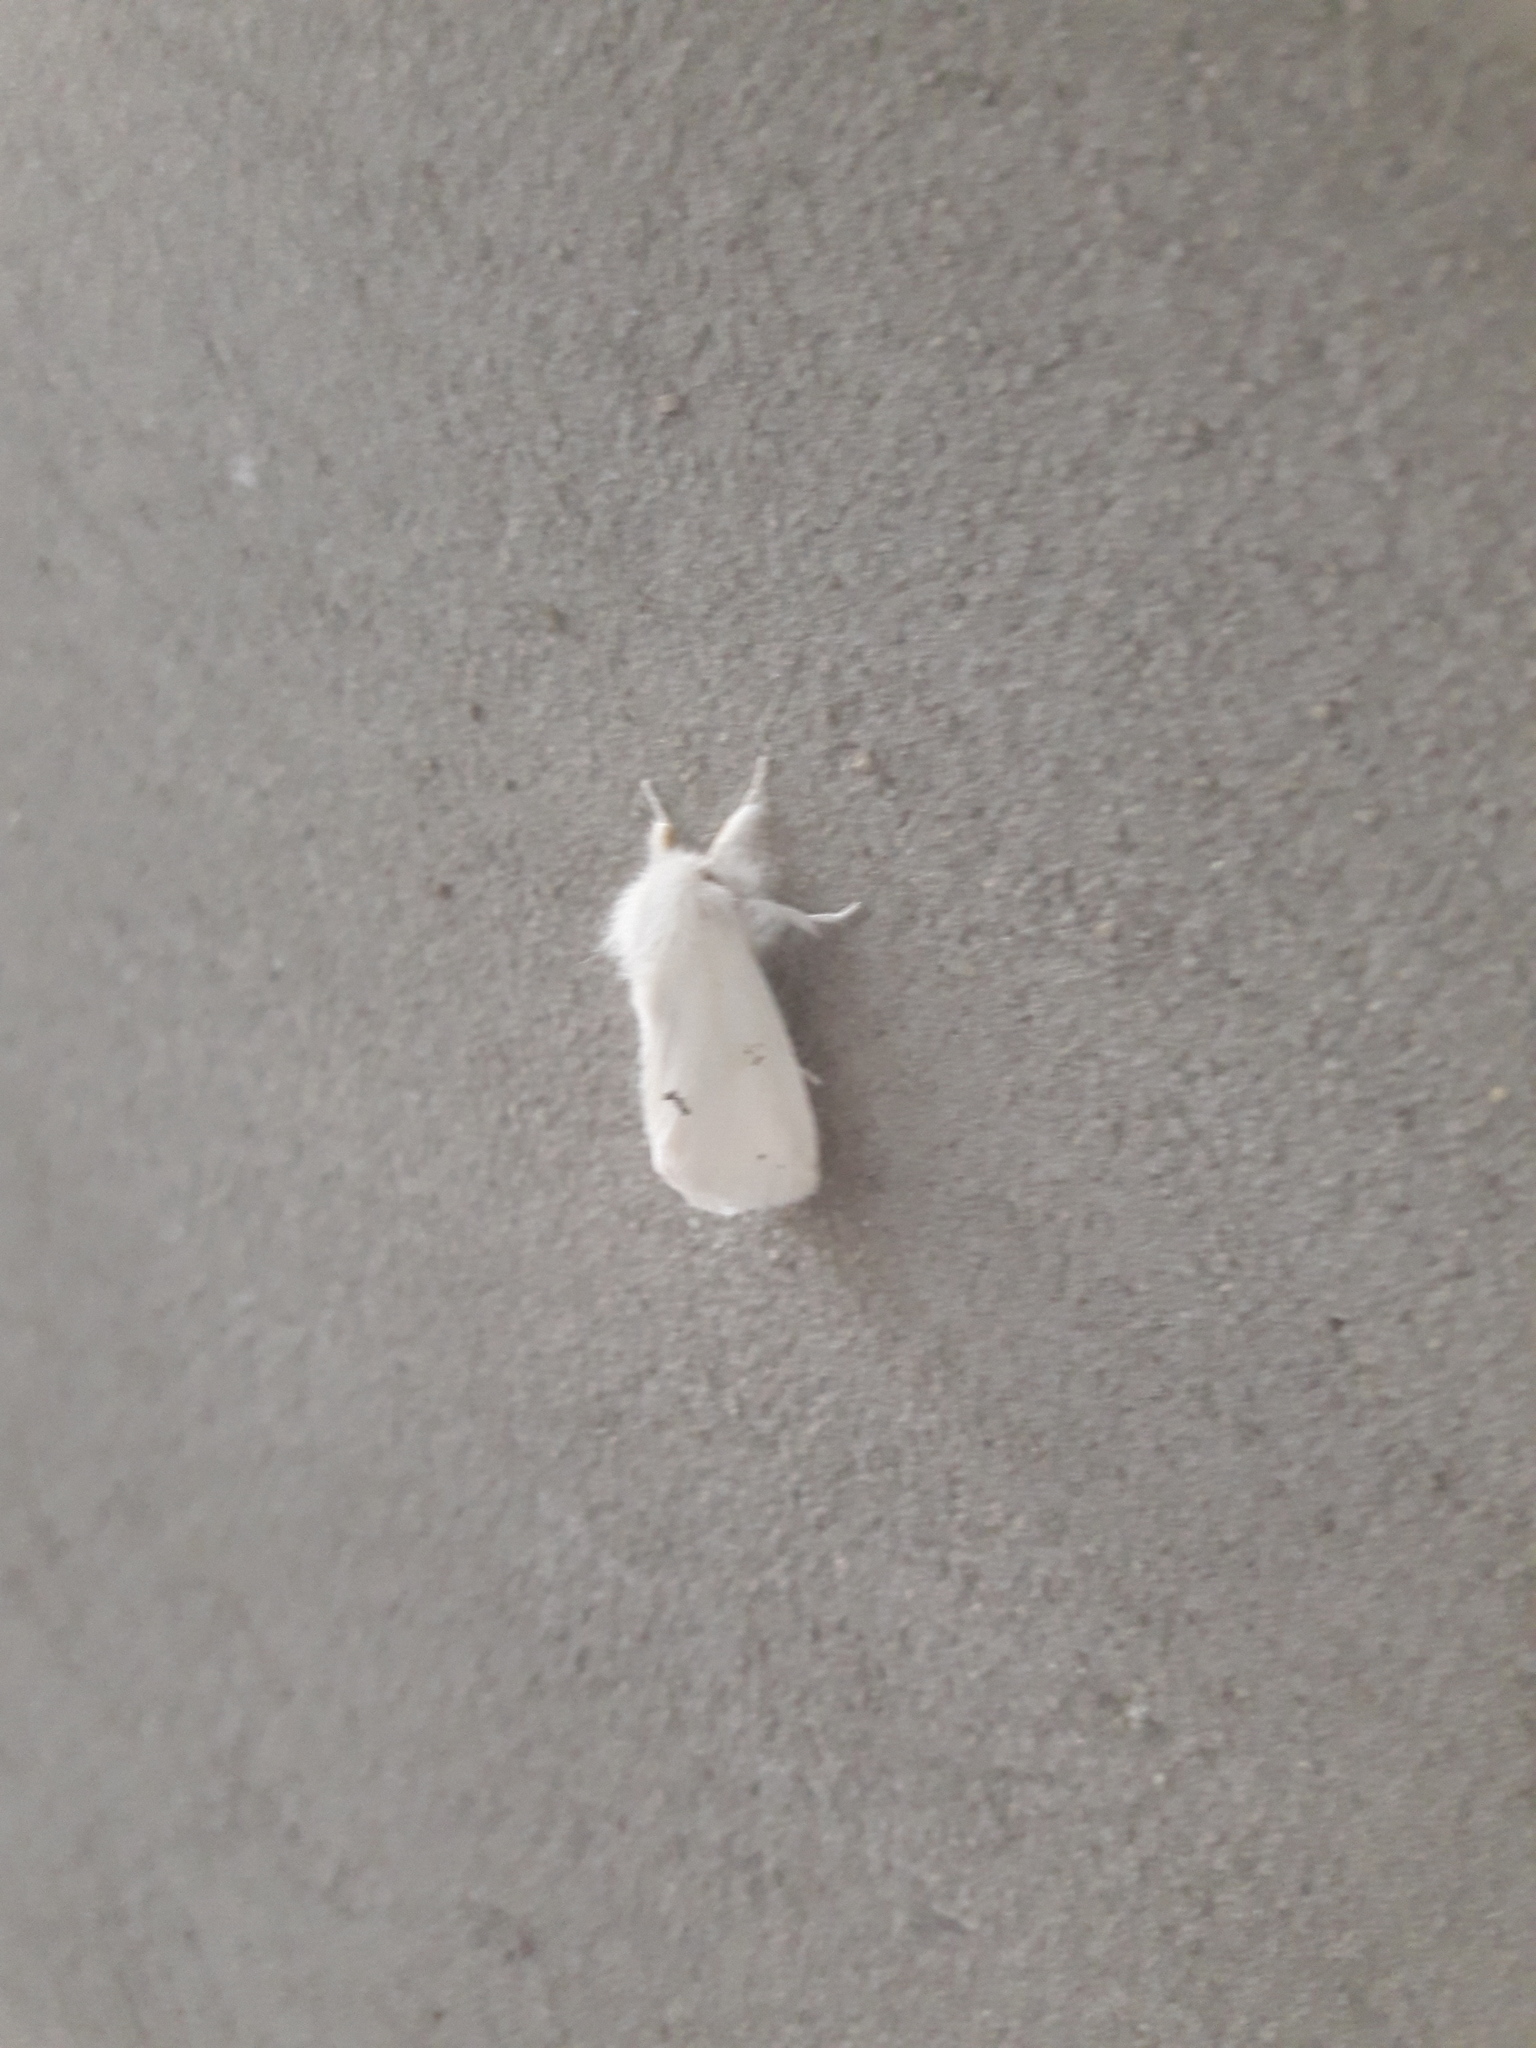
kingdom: Animalia
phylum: Arthropoda
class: Insecta
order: Lepidoptera
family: Erebidae
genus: Euproctis
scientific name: Euproctis chrysorrhoea
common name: Brown-tail
